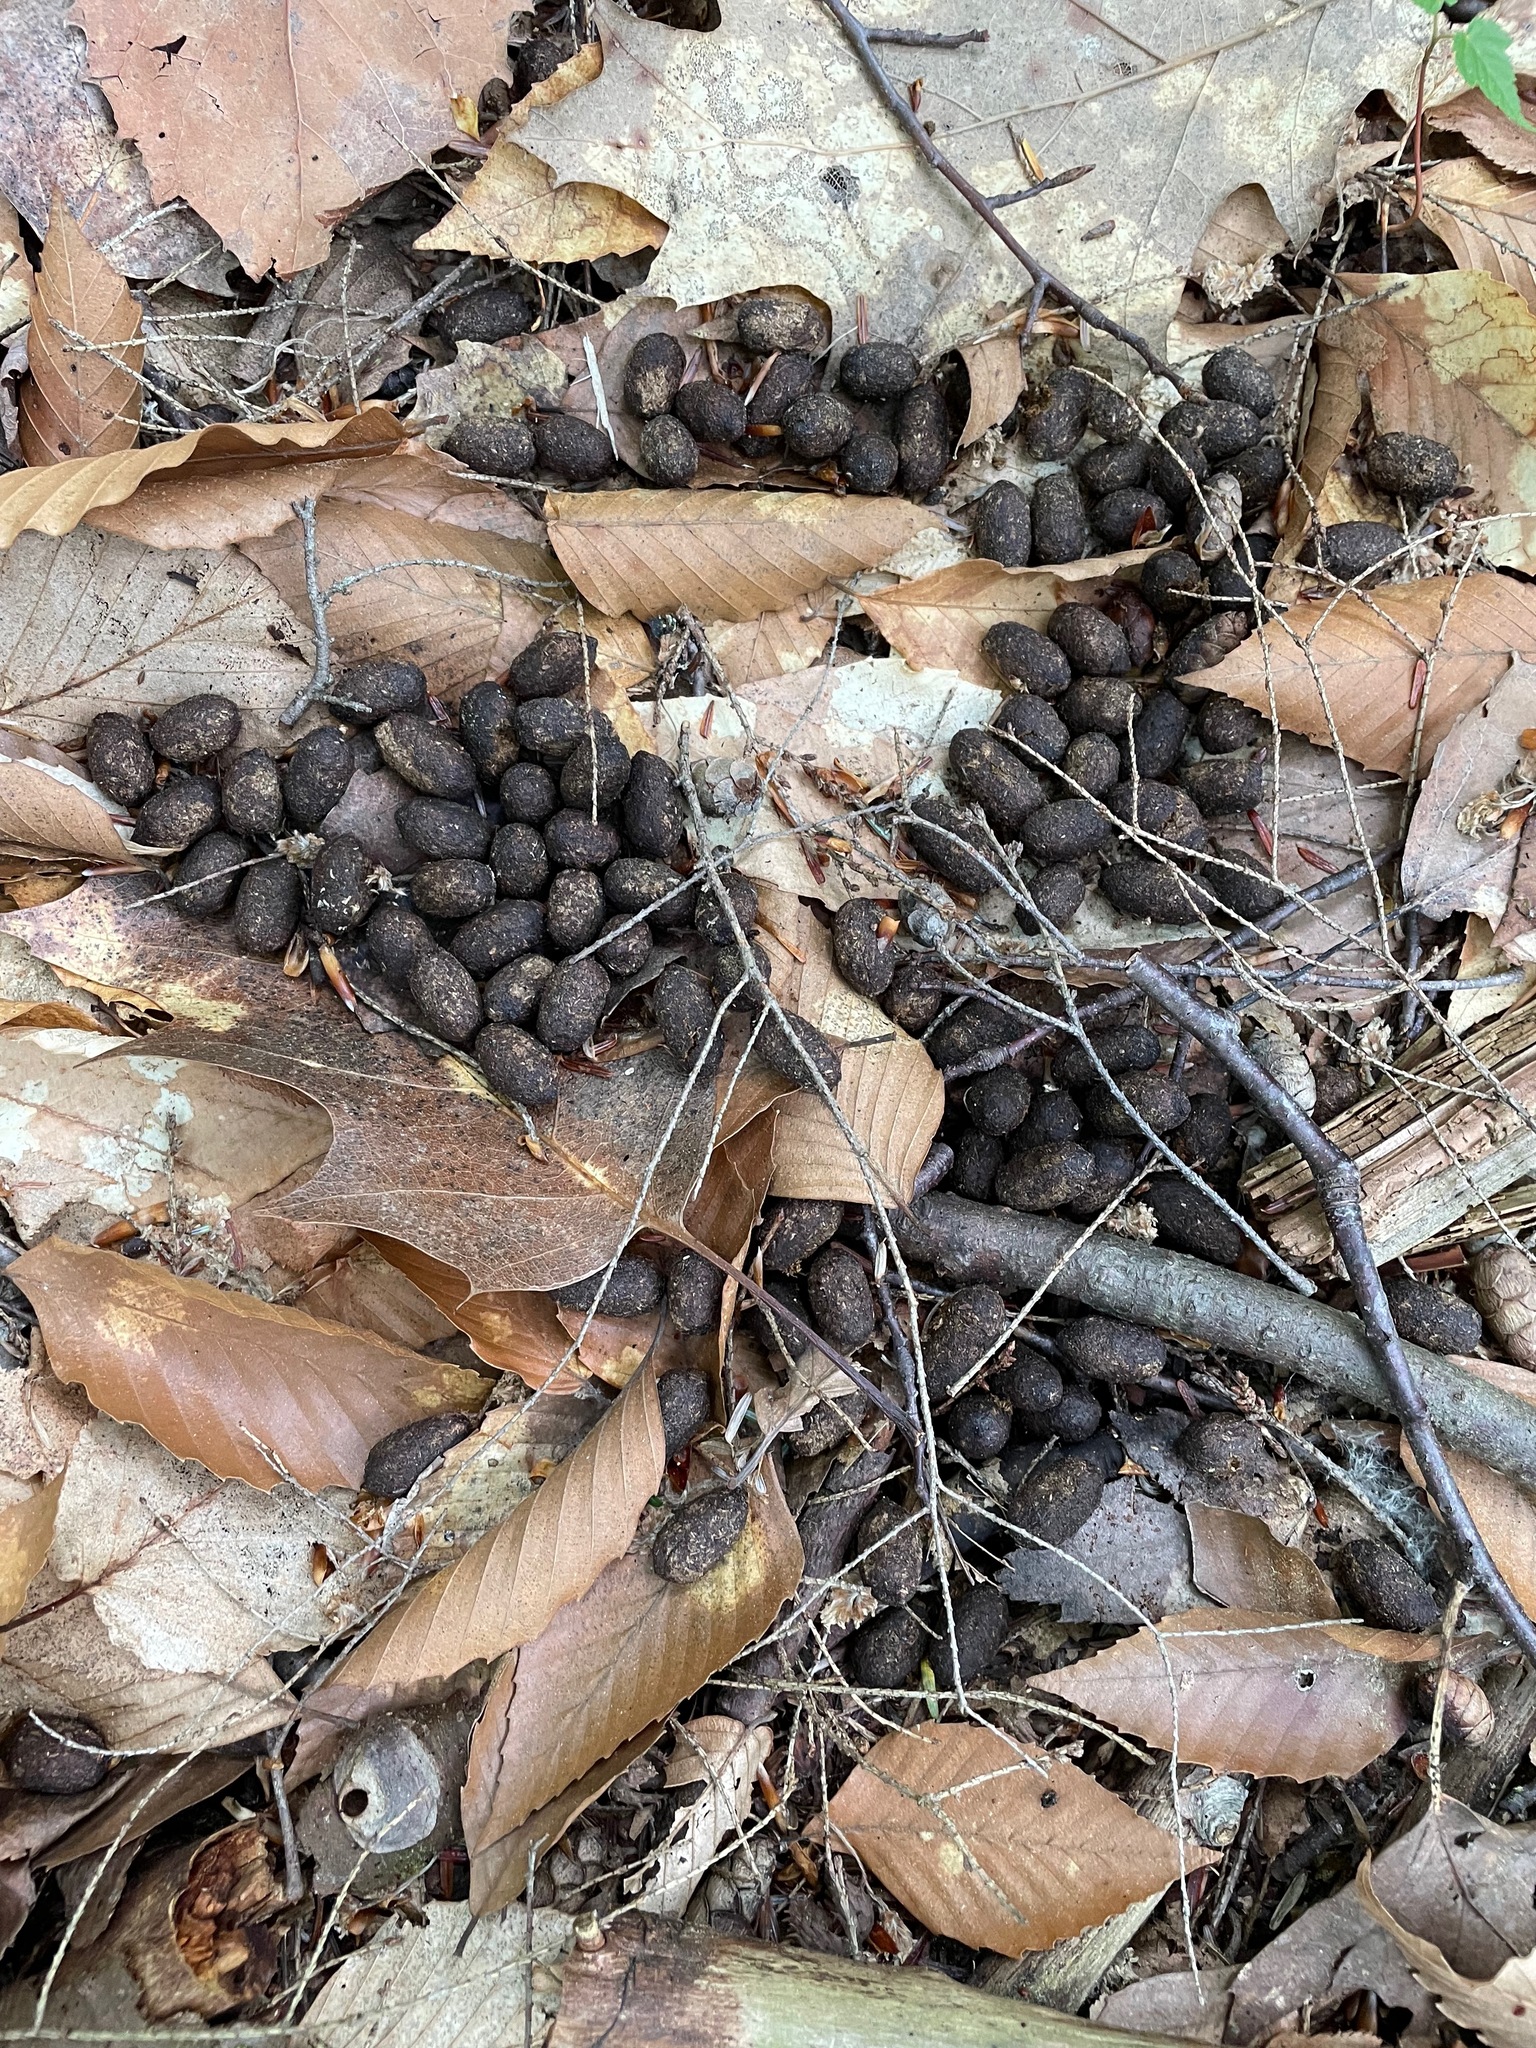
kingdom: Animalia
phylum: Chordata
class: Mammalia
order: Artiodactyla
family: Cervidae
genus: Odocoileus
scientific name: Odocoileus virginianus
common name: White-tailed deer
